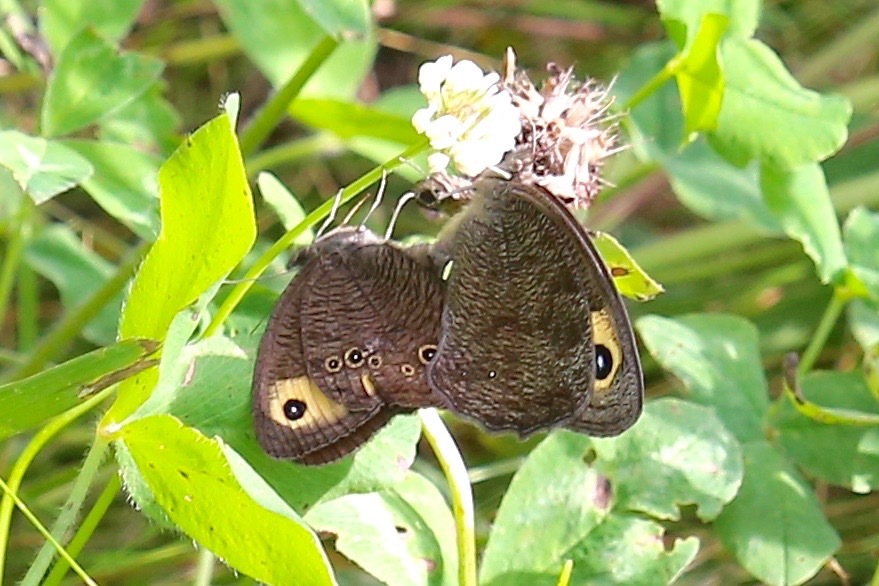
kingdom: Animalia
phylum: Arthropoda
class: Insecta
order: Lepidoptera
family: Nymphalidae
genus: Cercyonis
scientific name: Cercyonis pegala
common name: Common wood-nymph
